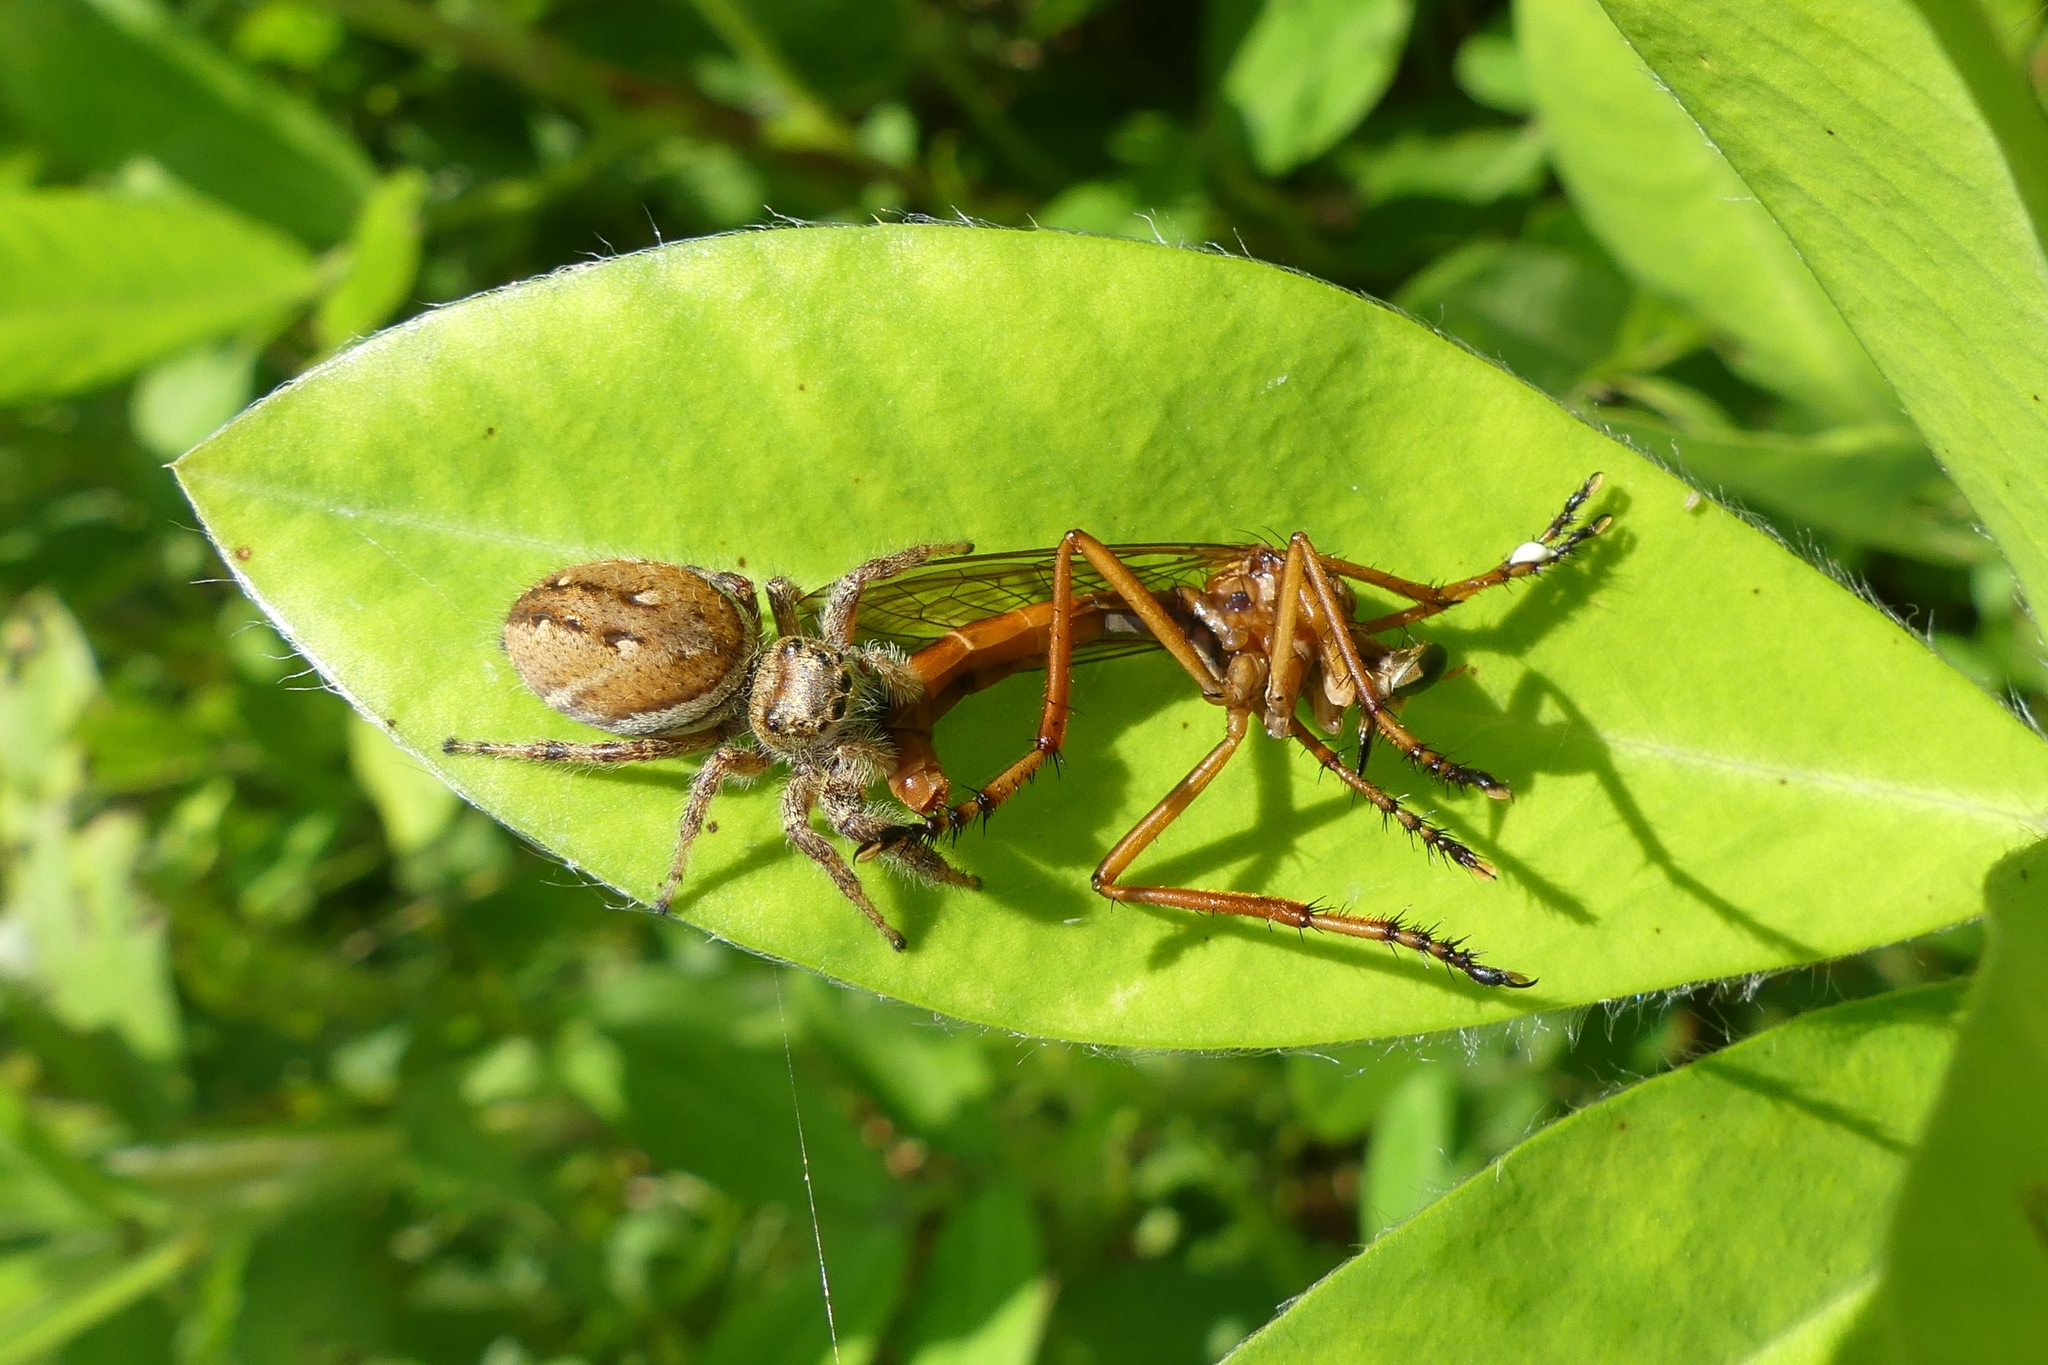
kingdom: Animalia
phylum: Arthropoda
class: Arachnida
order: Araneae
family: Salticidae
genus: Phidippus
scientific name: Phidippus clarus
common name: Brilliant jumping spider
